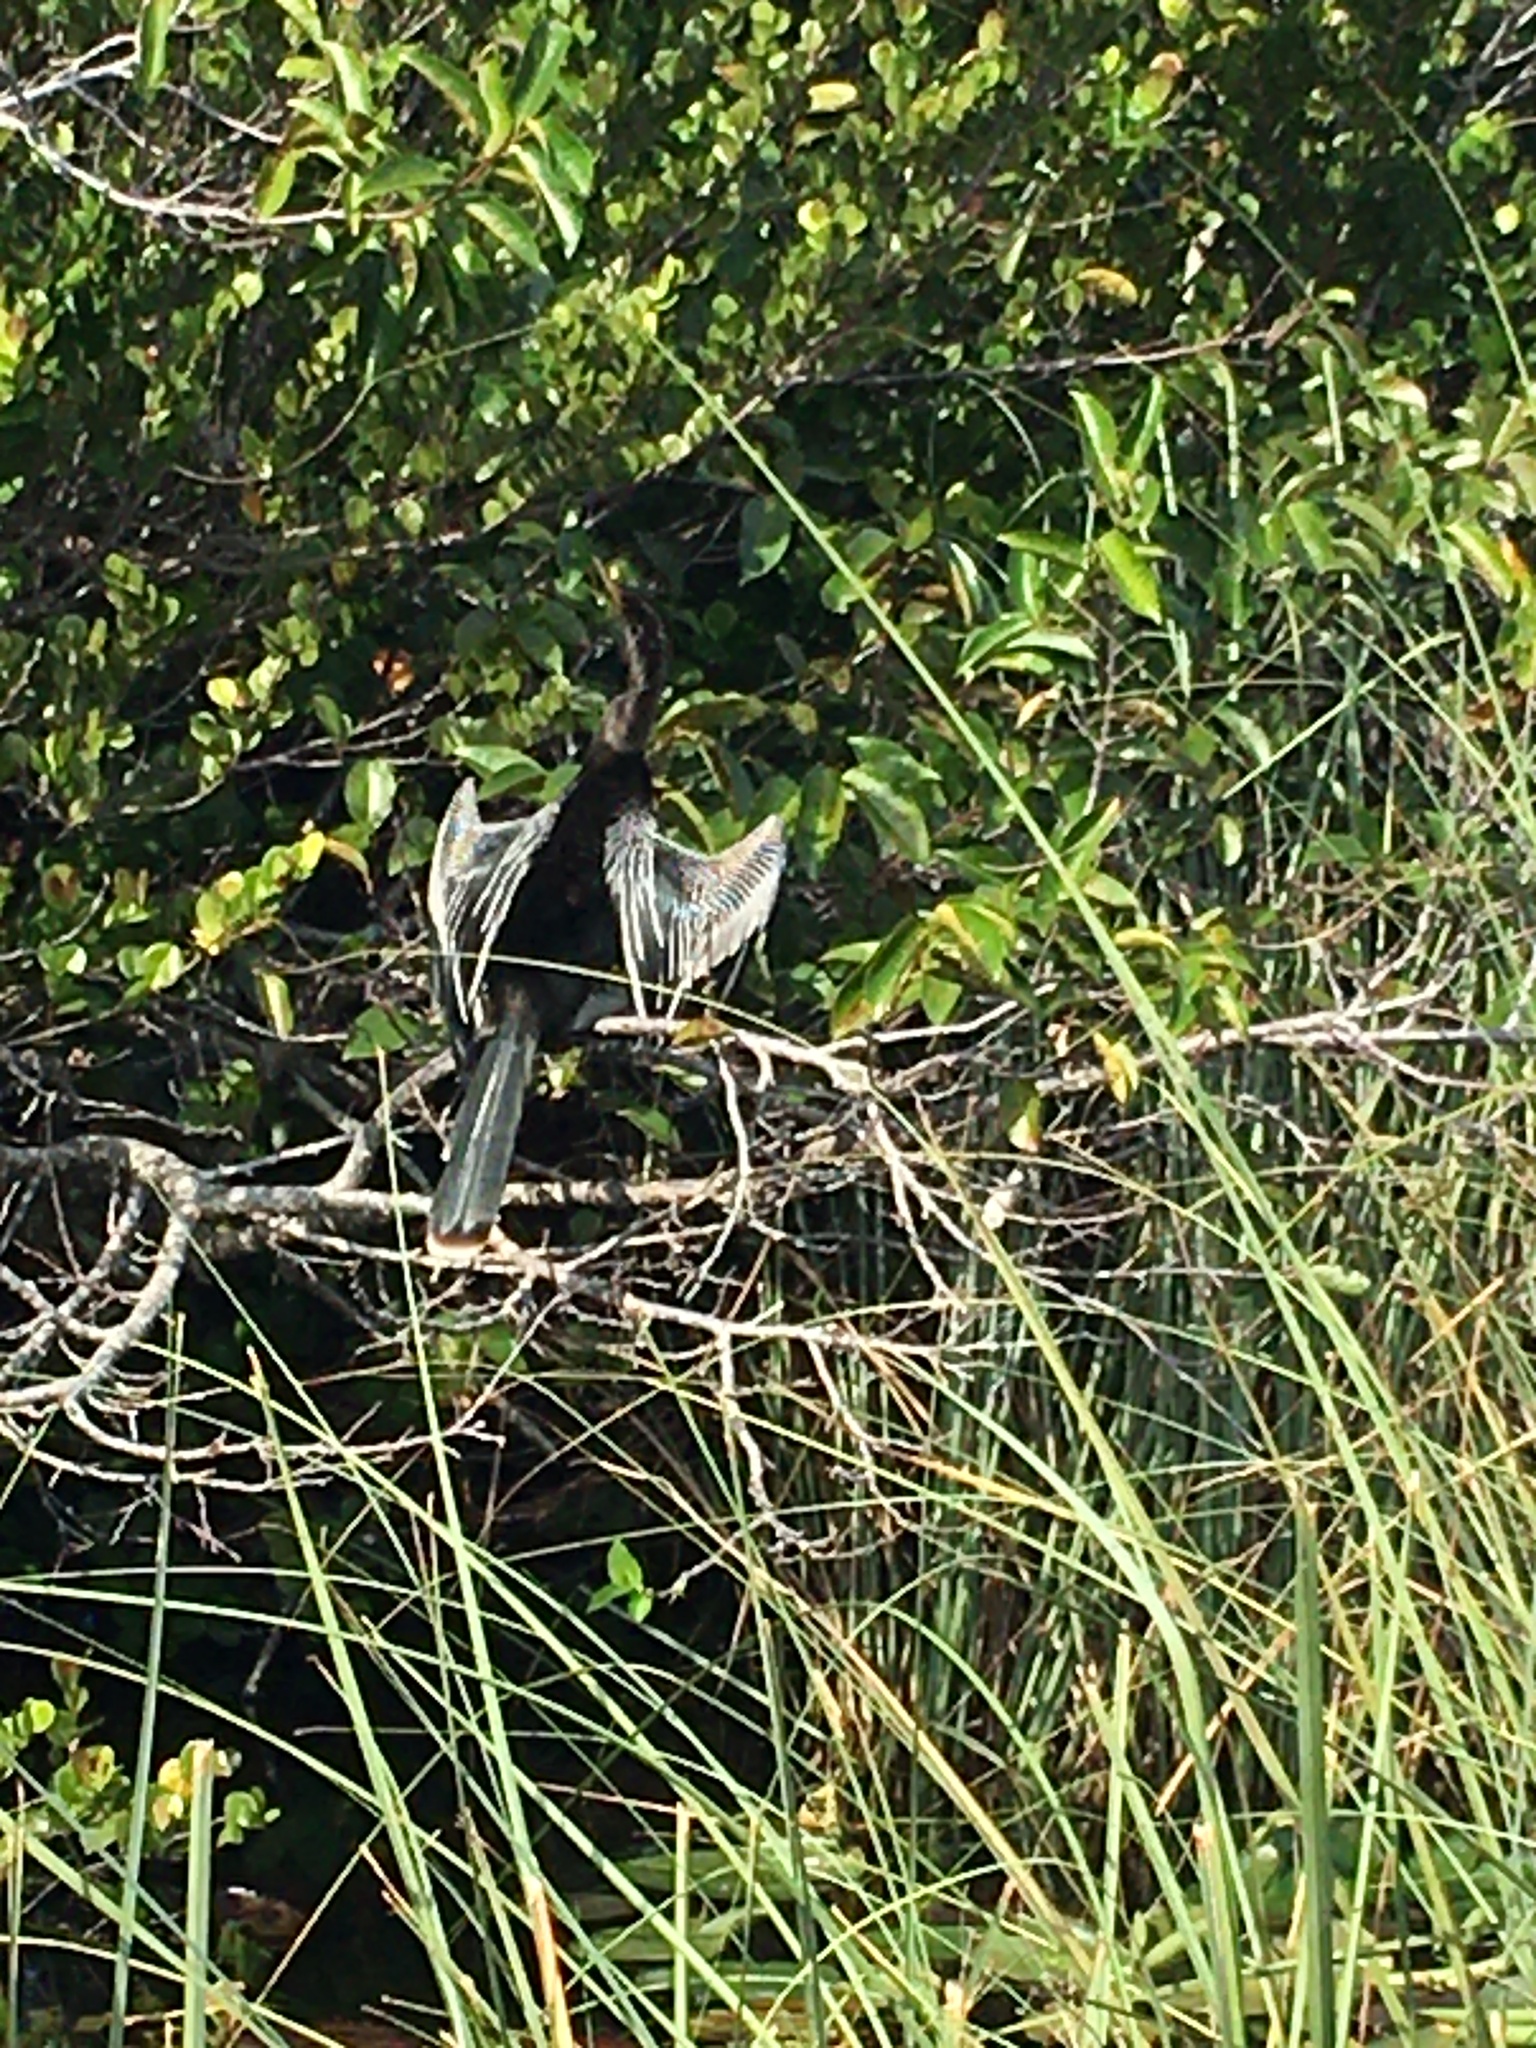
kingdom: Animalia
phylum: Chordata
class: Aves
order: Suliformes
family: Anhingidae
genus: Anhinga
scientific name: Anhinga anhinga
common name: Anhinga
